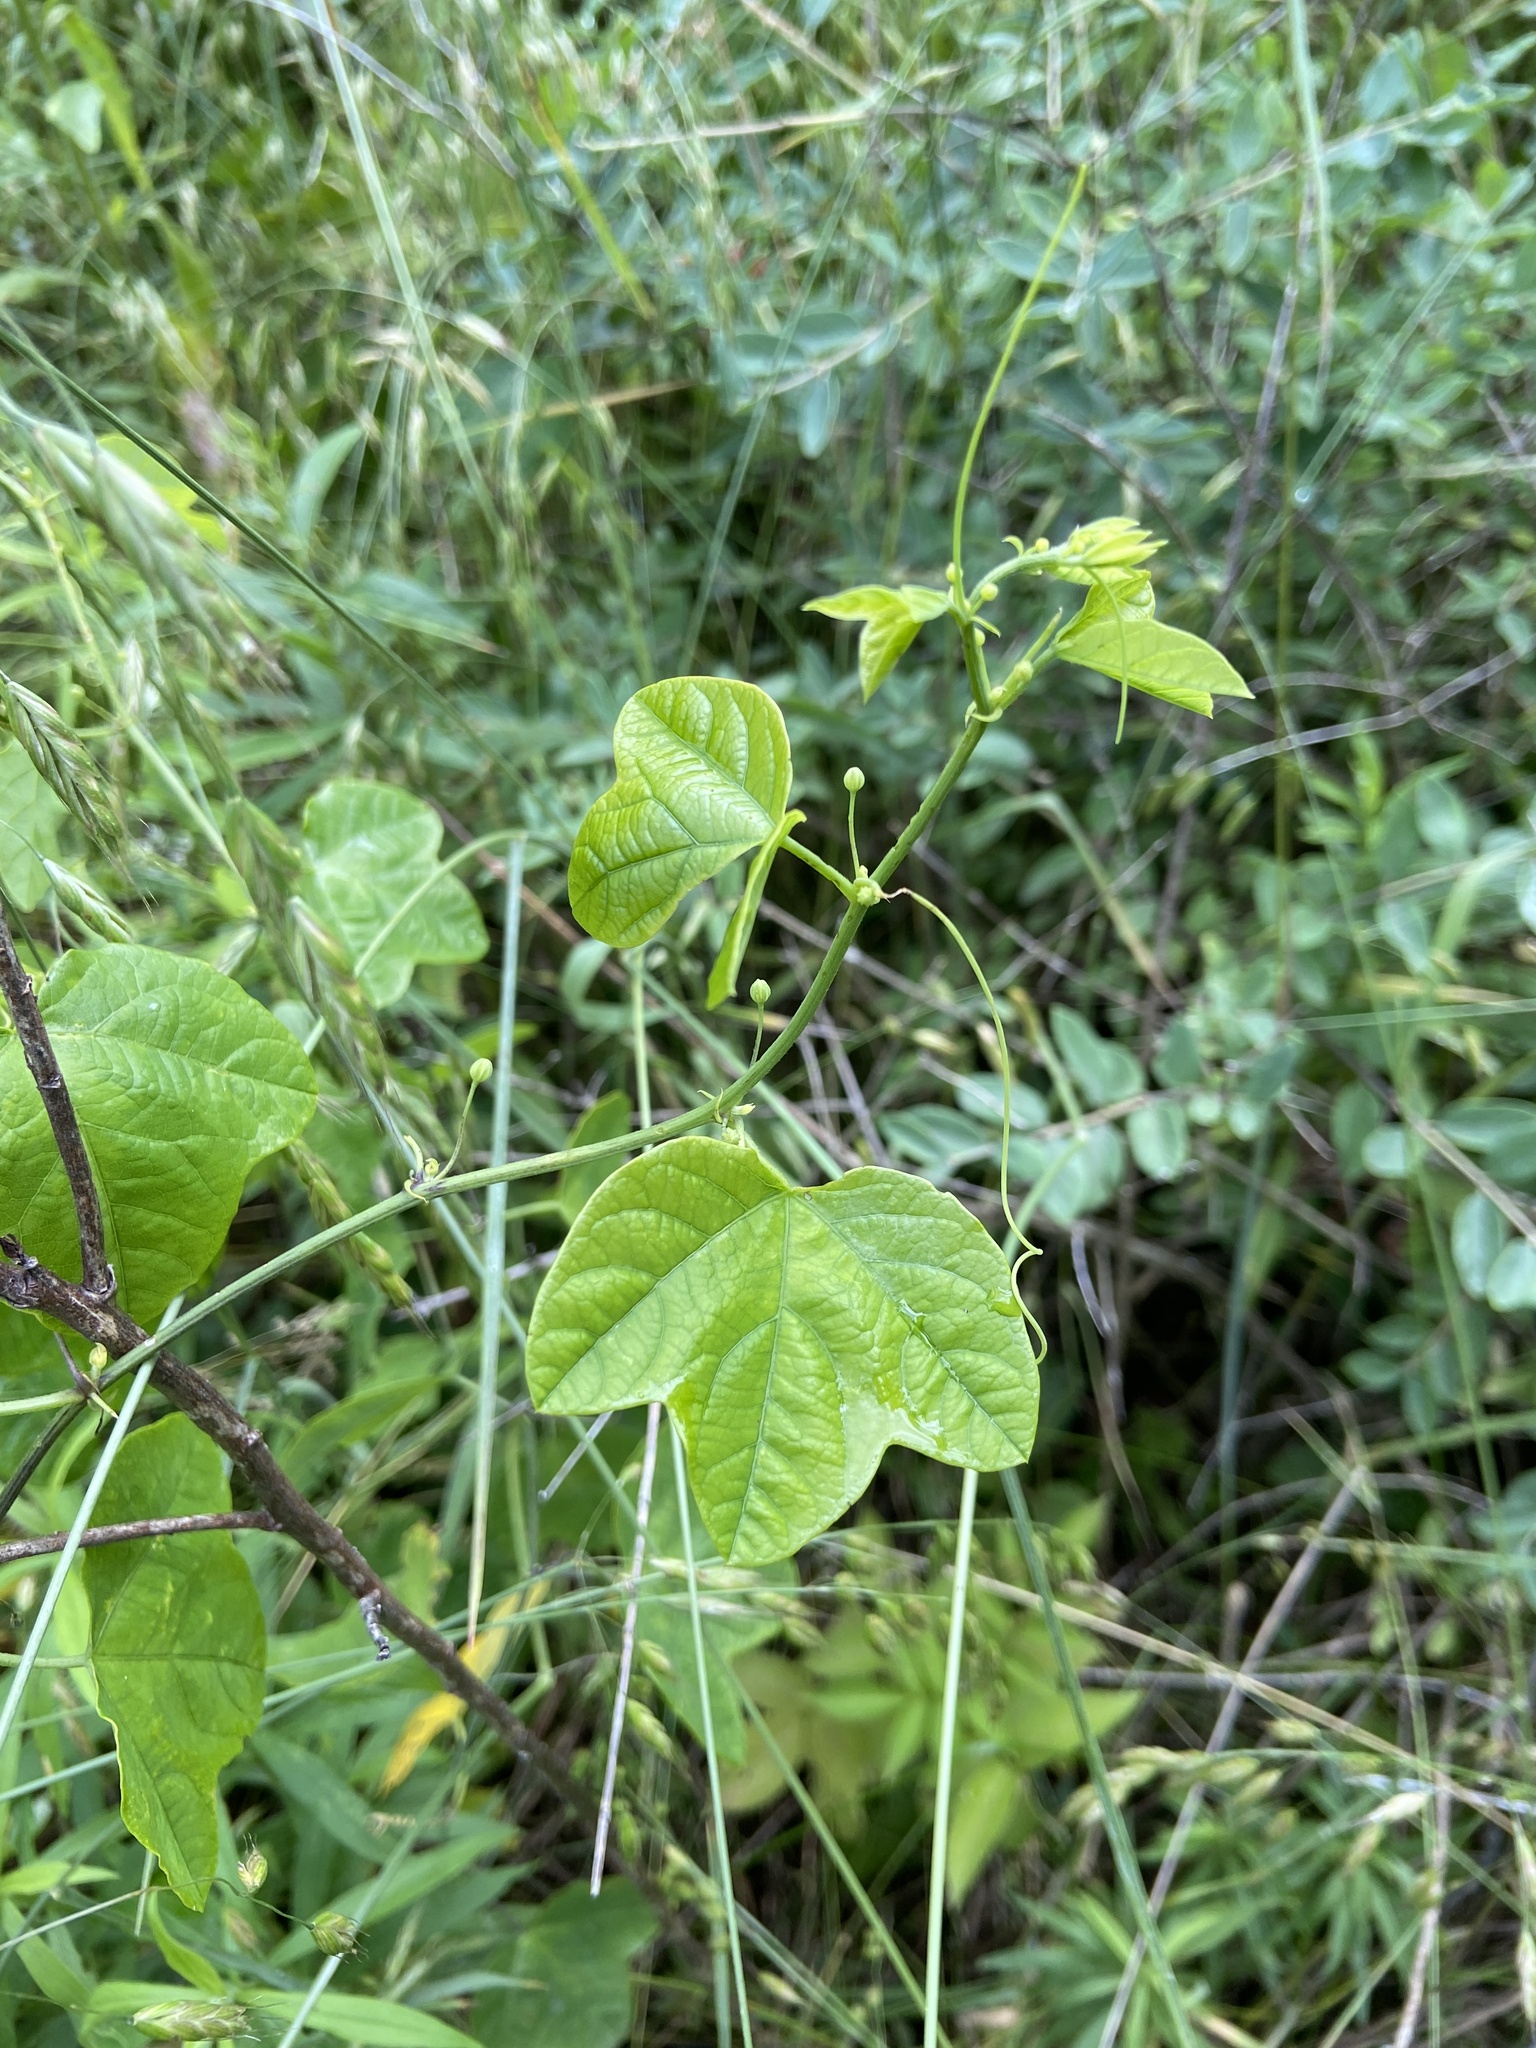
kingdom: Plantae
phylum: Tracheophyta
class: Magnoliopsida
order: Malpighiales
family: Passifloraceae
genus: Passiflora
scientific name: Passiflora lutea
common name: Yellow passionflower
